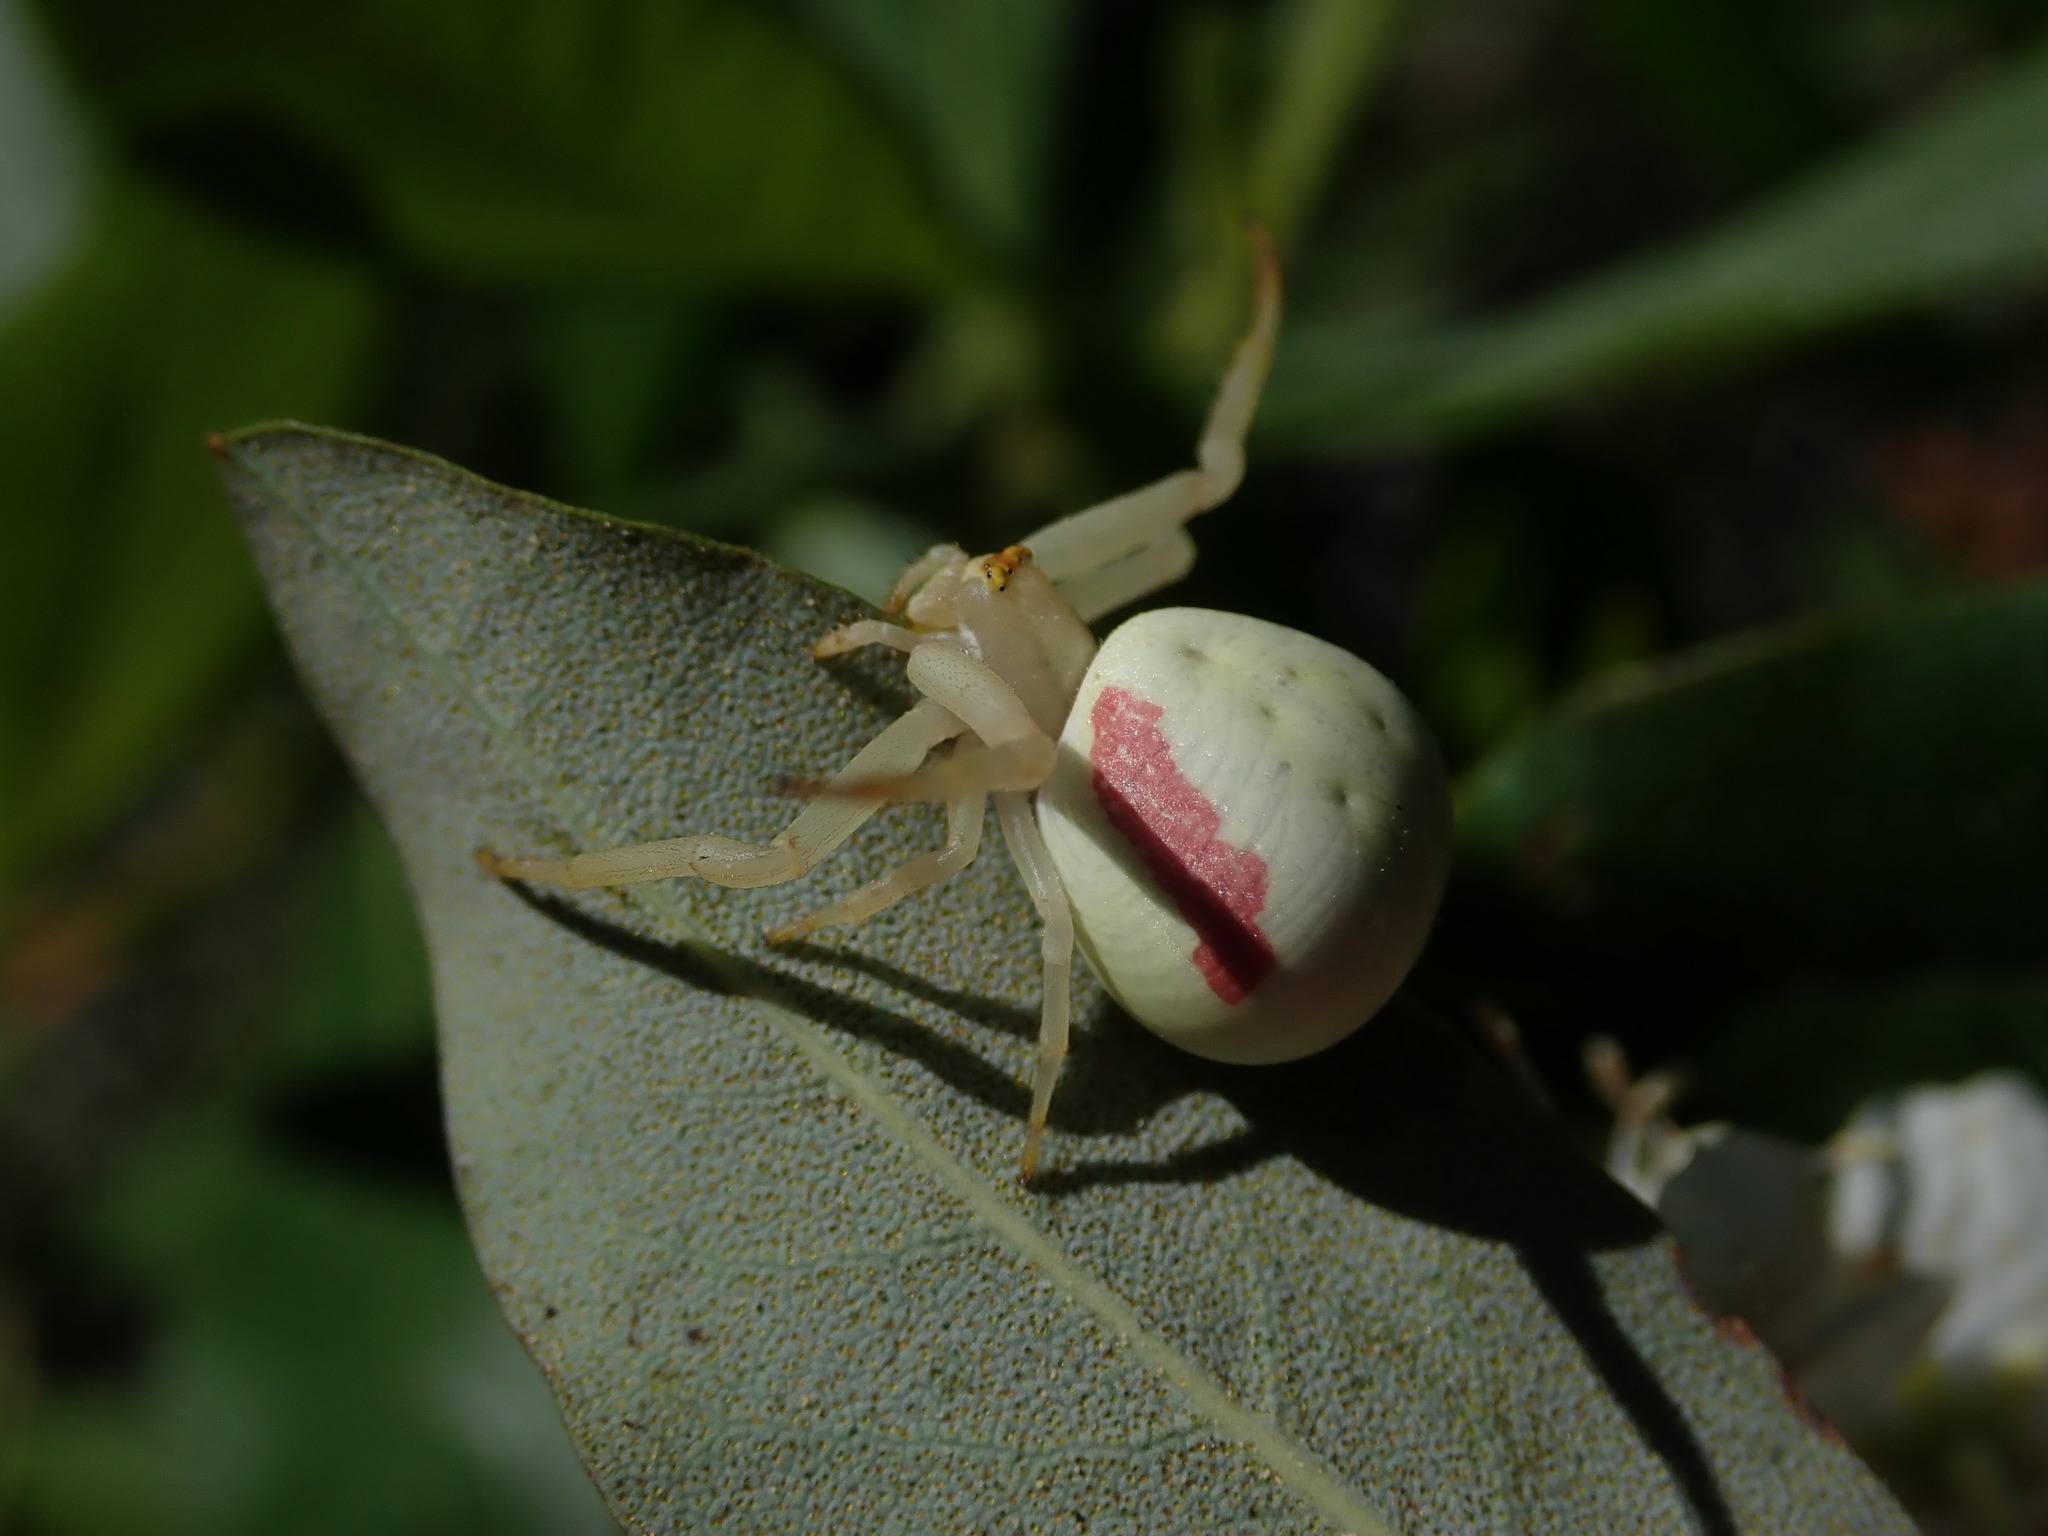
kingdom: Animalia
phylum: Arthropoda
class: Arachnida
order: Araneae
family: Thomisidae
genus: Misumena
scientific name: Misumena vatia
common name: Goldenrod crab spider
